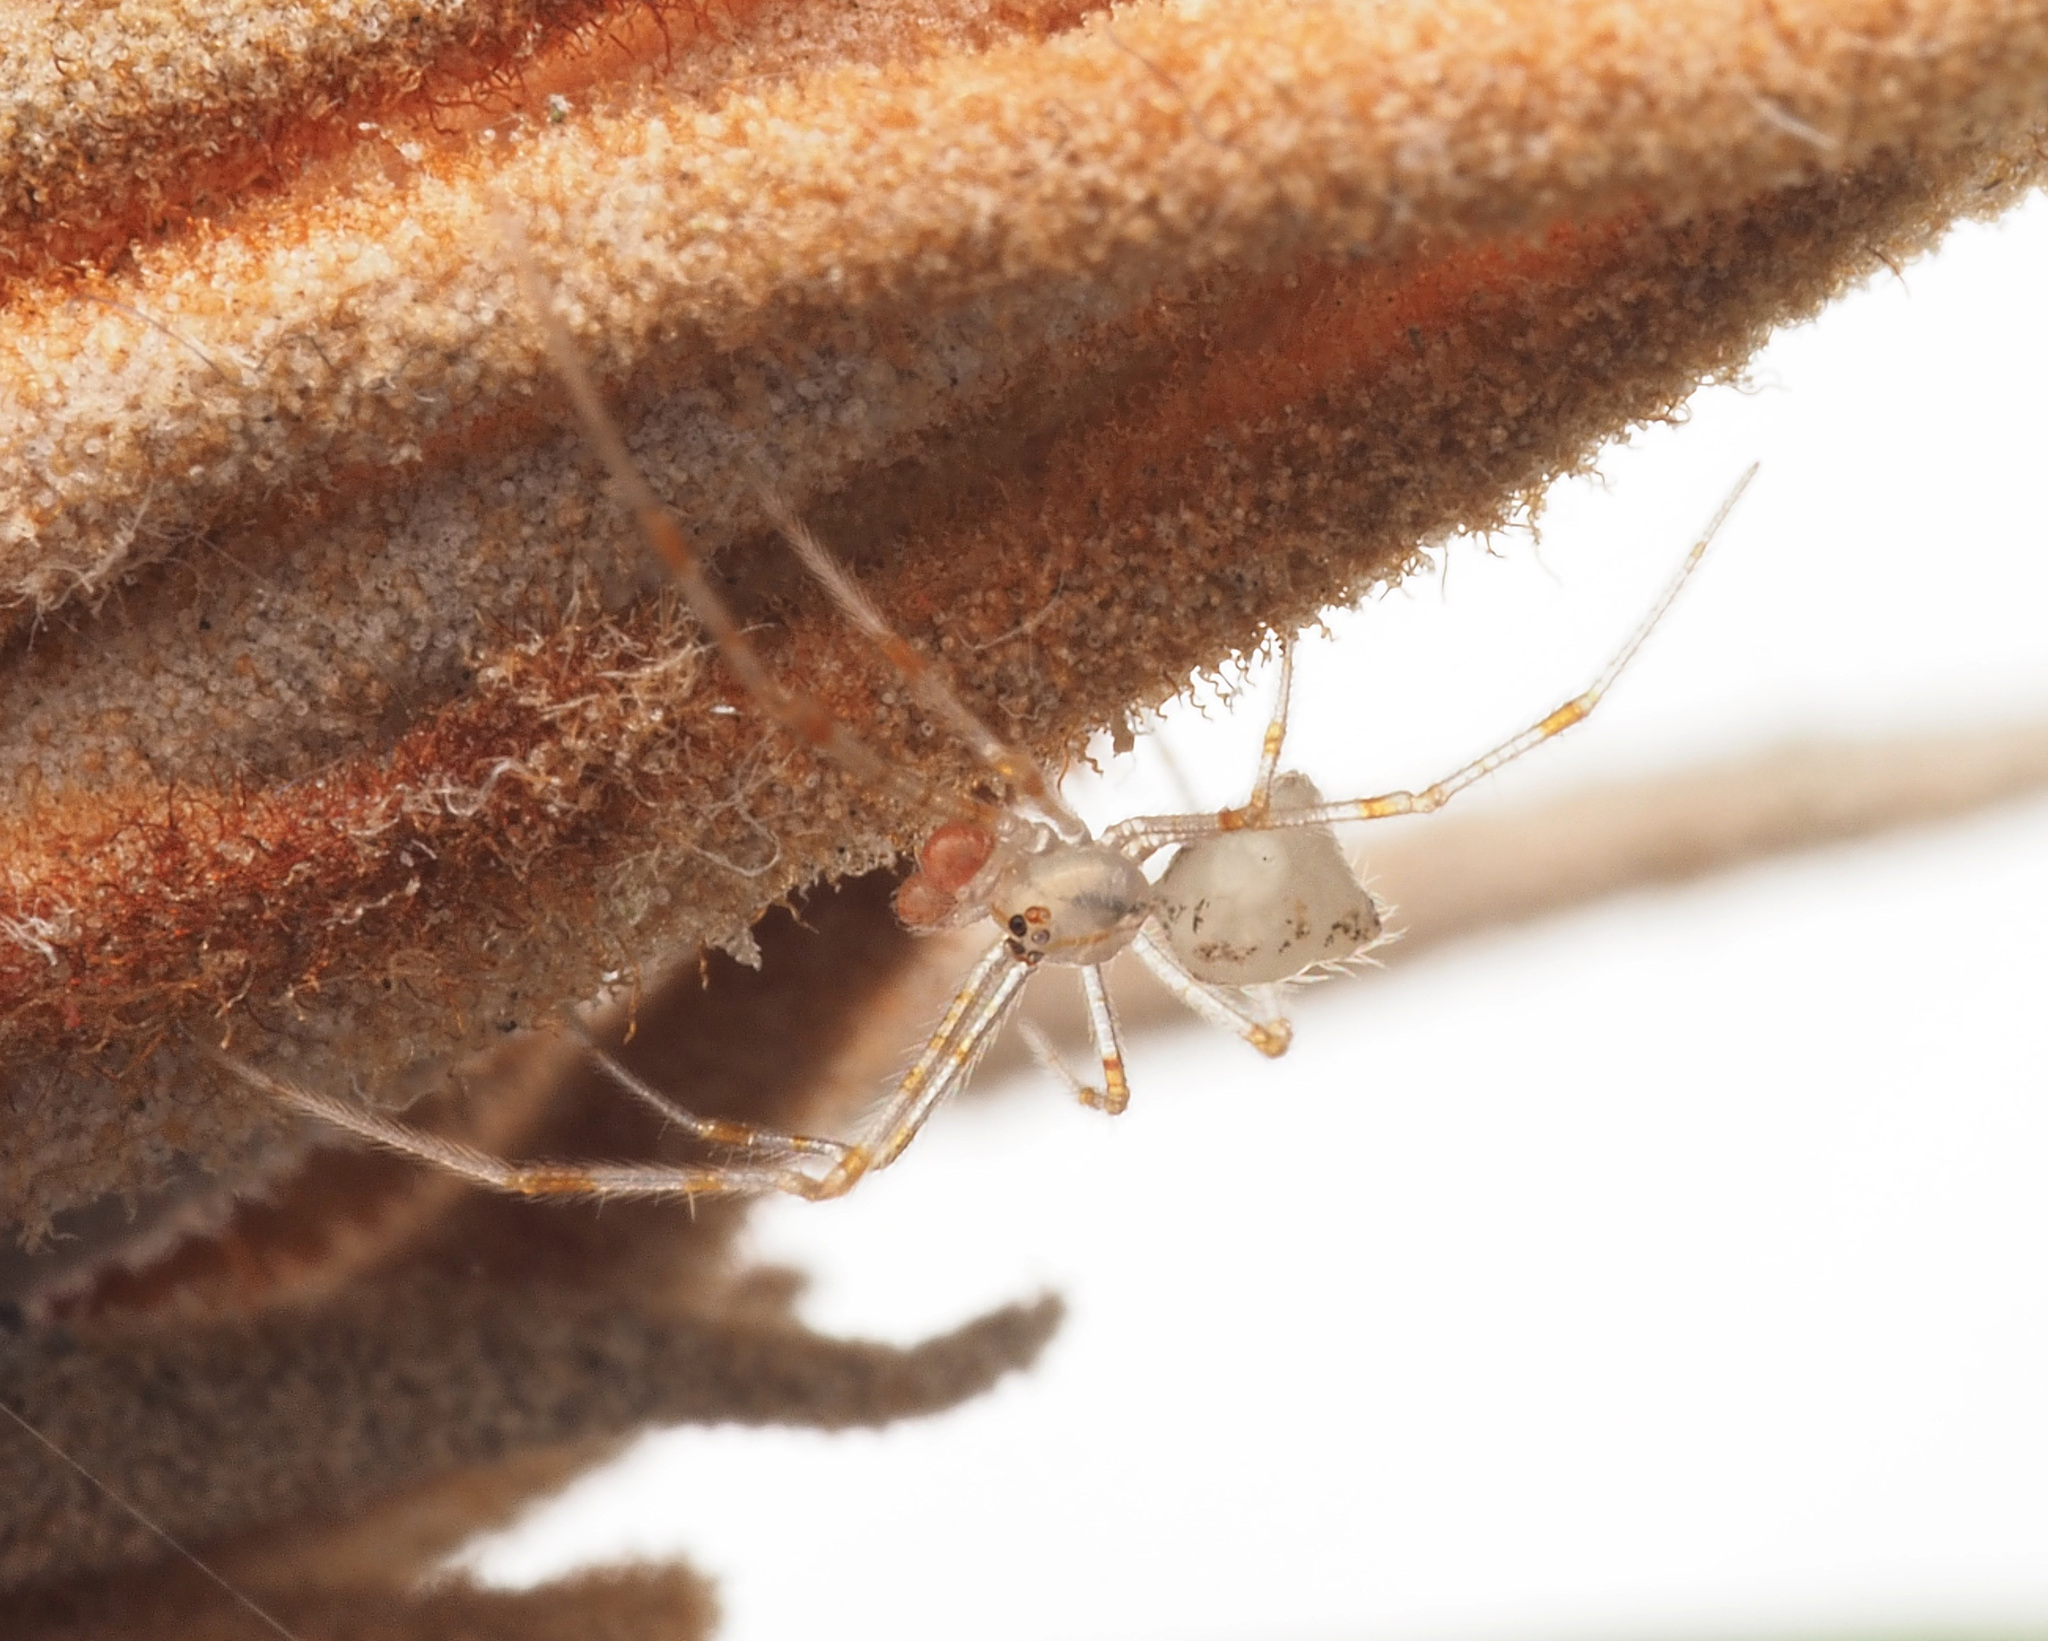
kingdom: Animalia
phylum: Arthropoda
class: Arachnida
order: Araneae
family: Theridiidae
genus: Meotipa
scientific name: Meotipa
